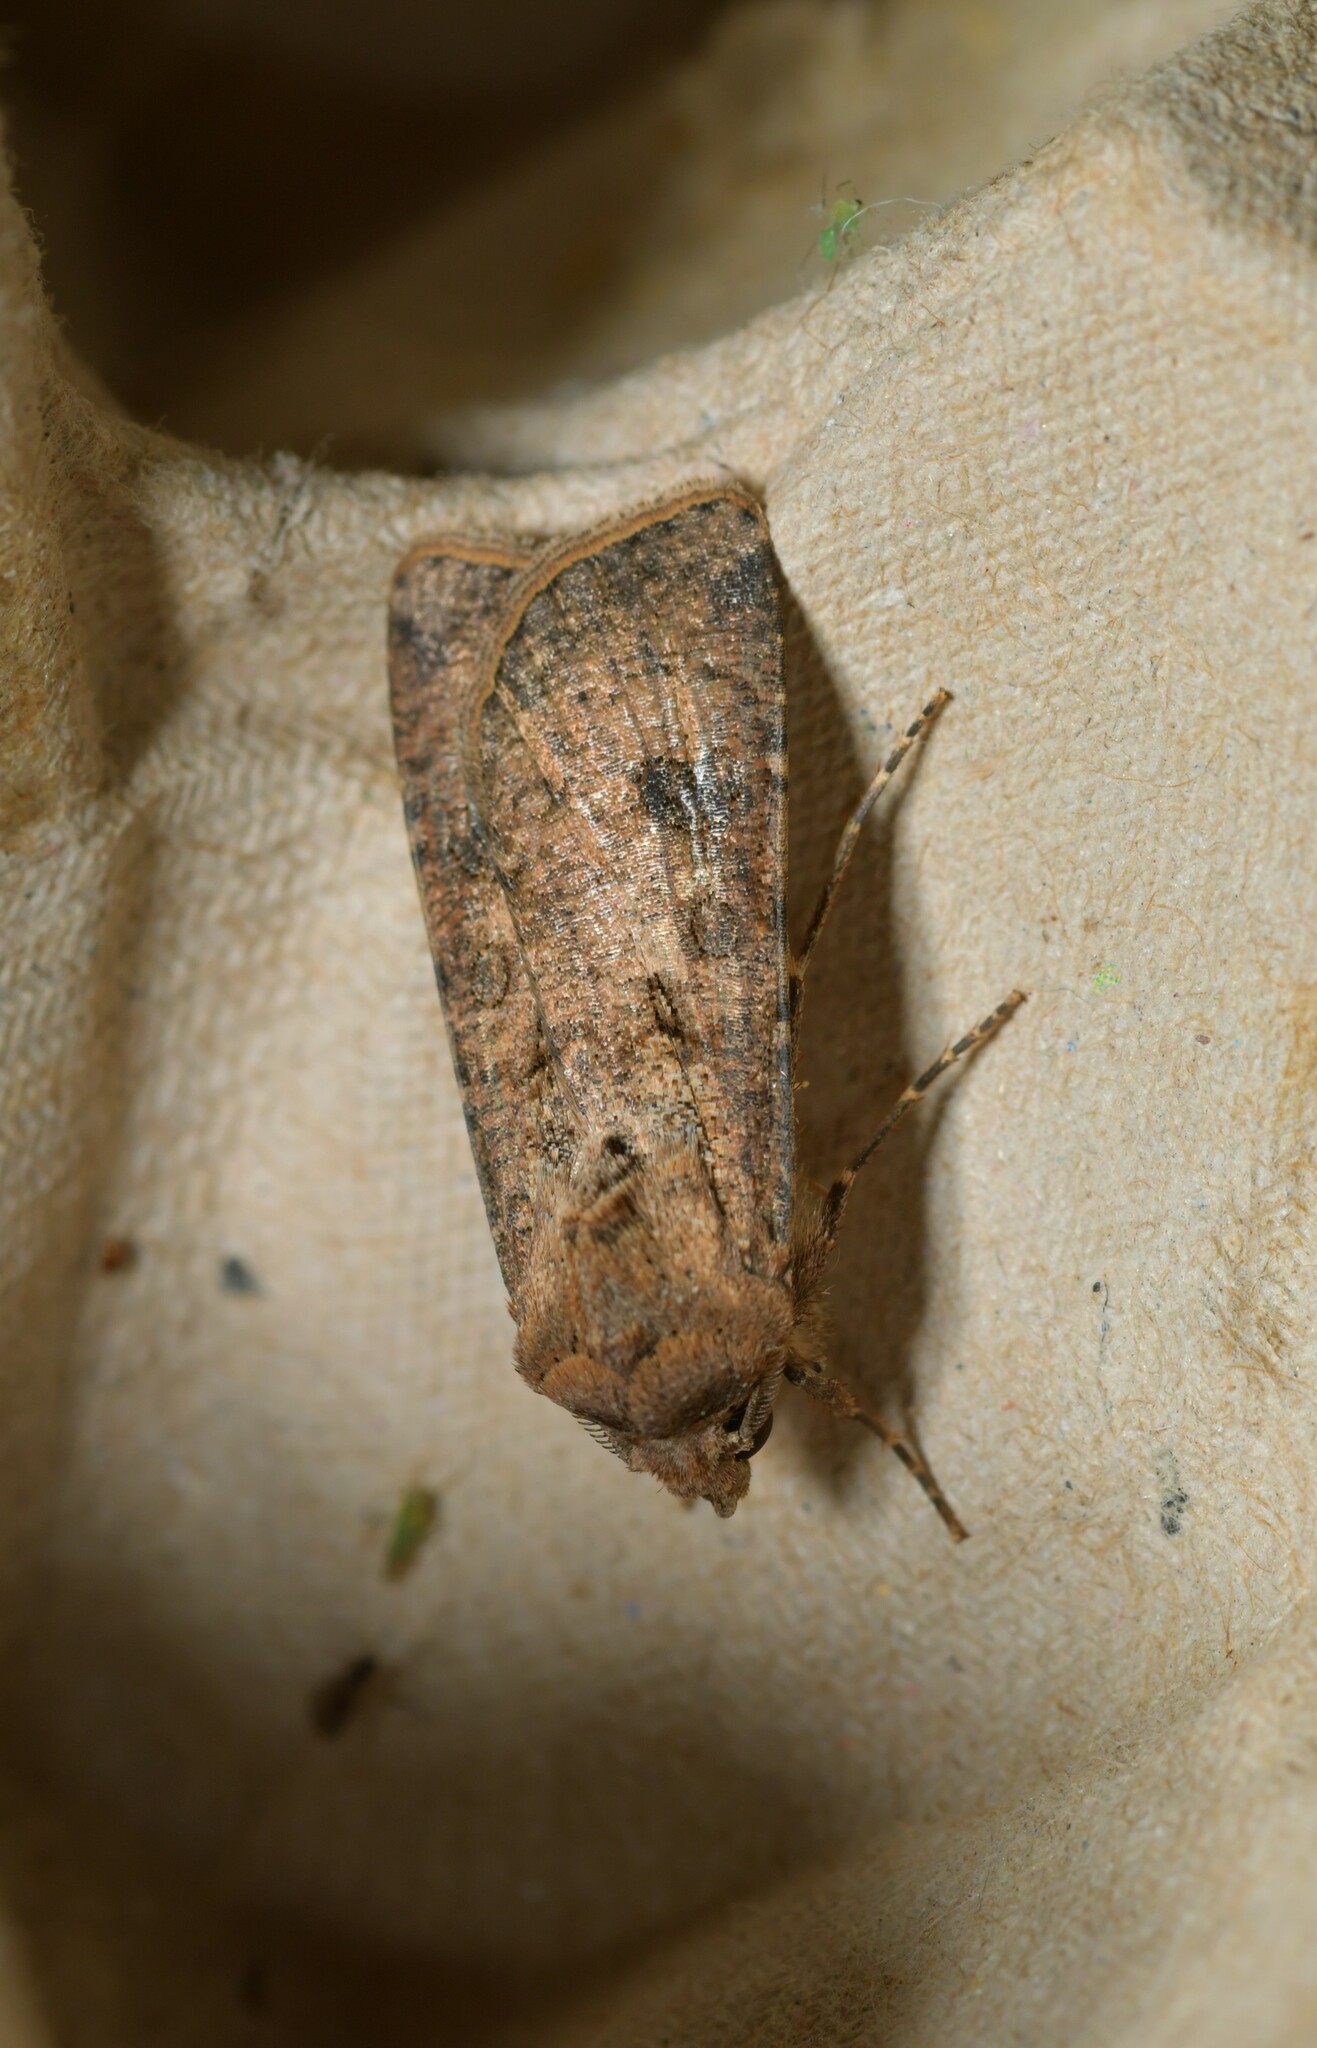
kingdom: Animalia
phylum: Arthropoda
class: Insecta
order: Lepidoptera
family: Noctuidae
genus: Agrotis
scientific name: Agrotis segetum
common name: Turnip moth
